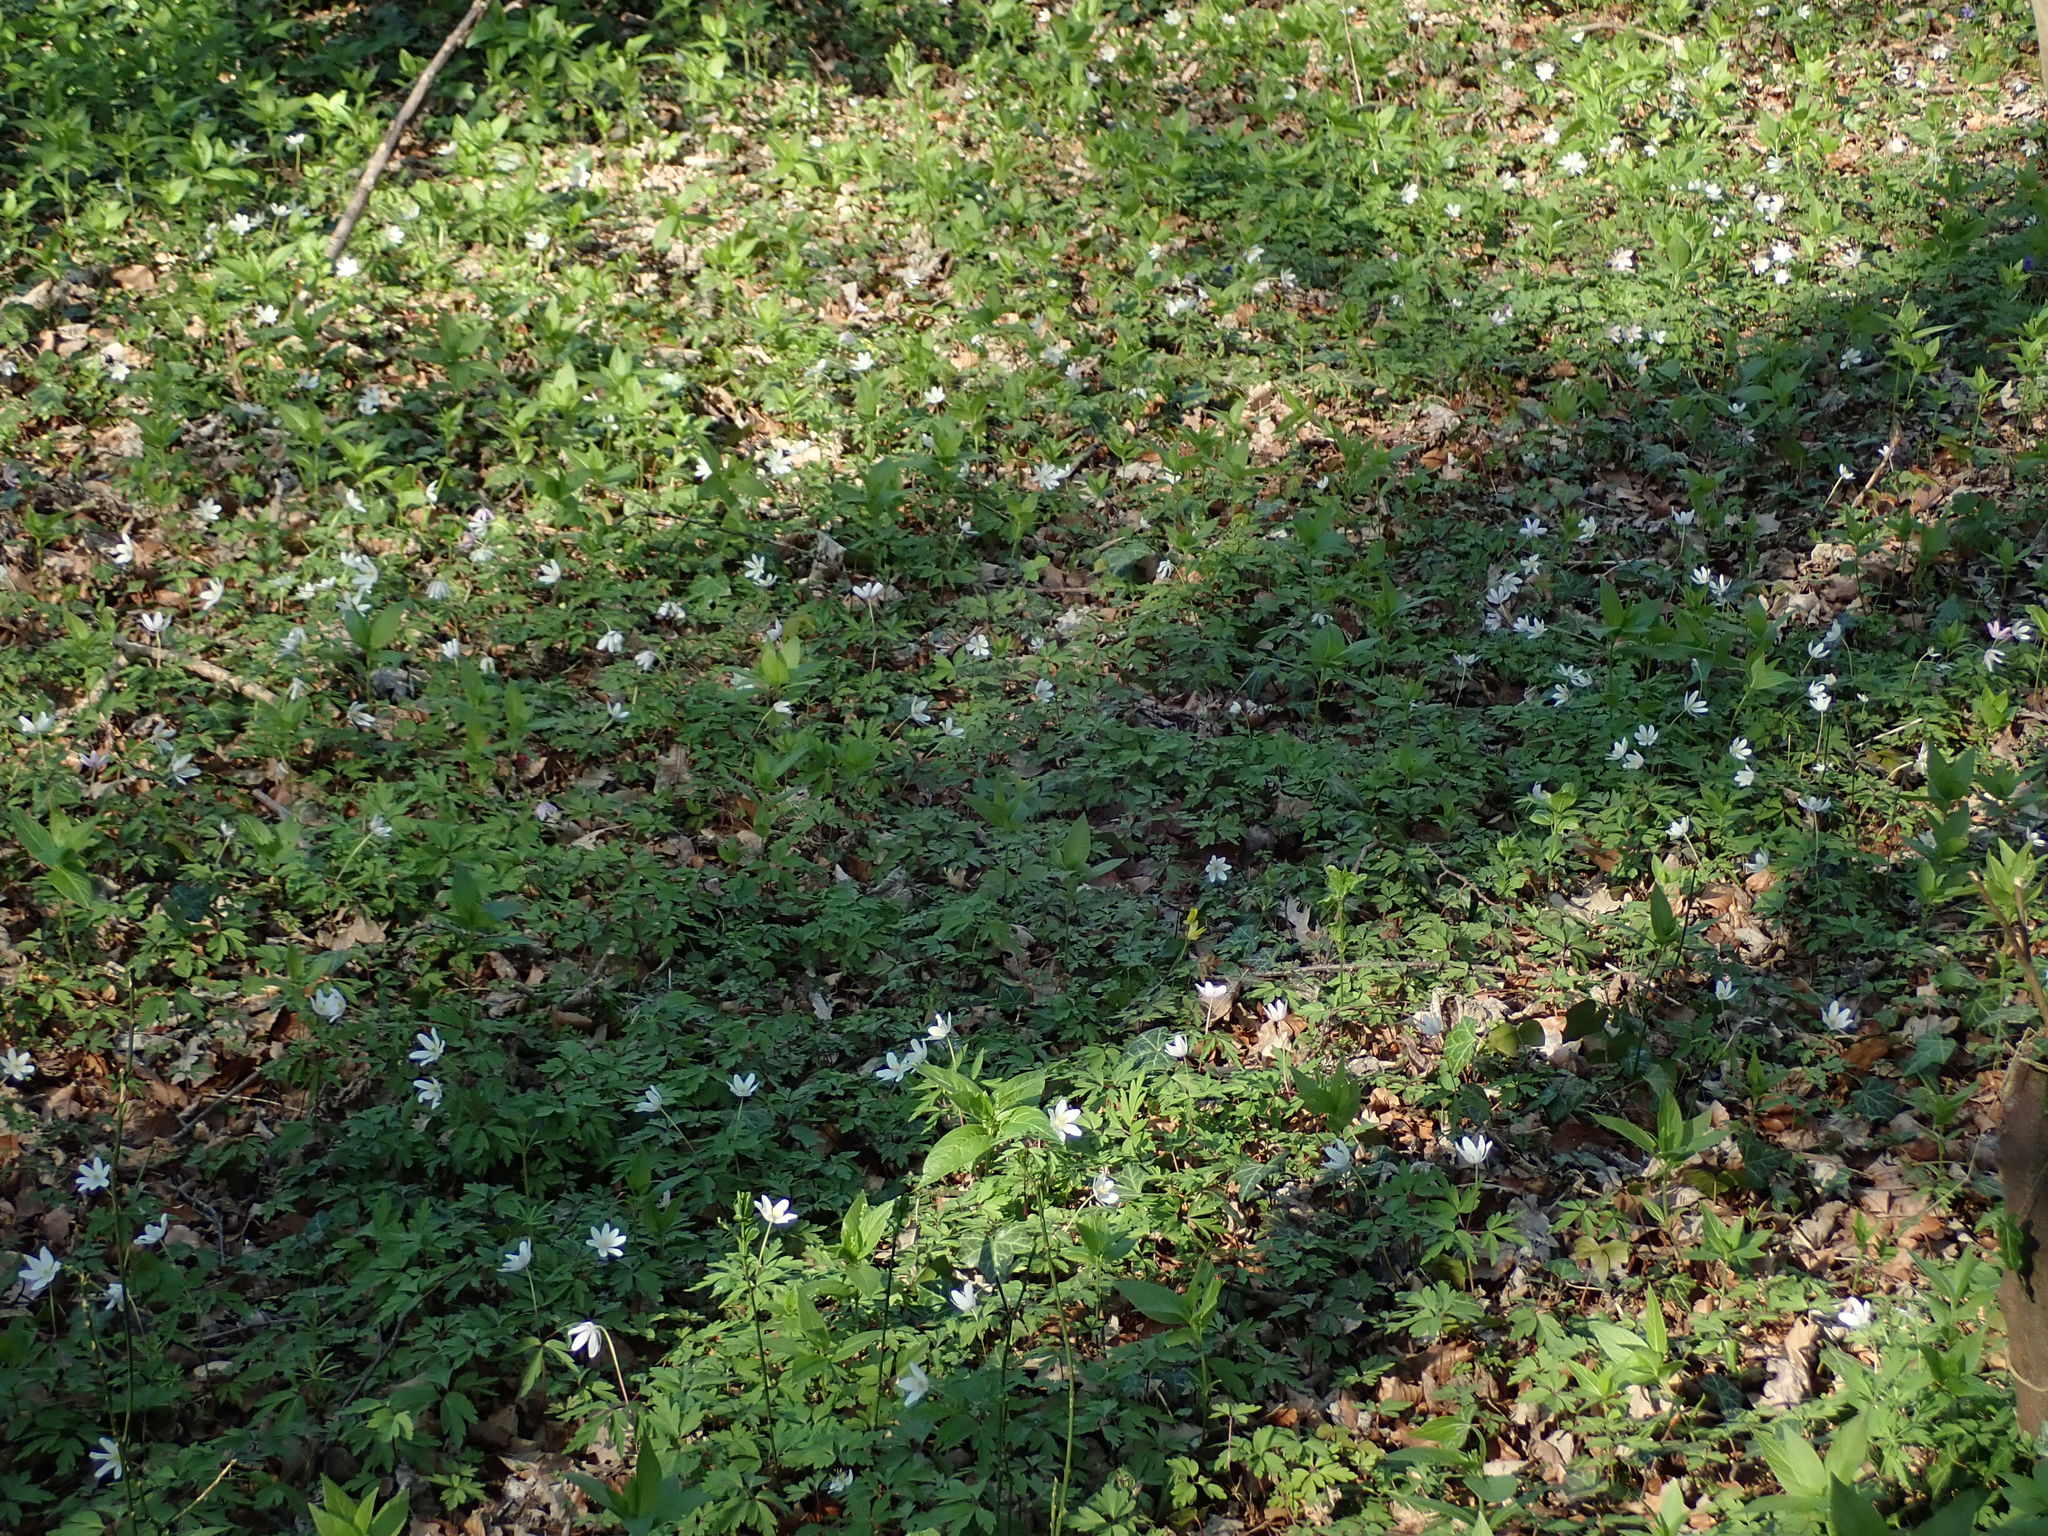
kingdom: Plantae
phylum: Tracheophyta
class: Magnoliopsida
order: Ranunculales
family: Ranunculaceae
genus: Anemone
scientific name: Anemone nemorosa
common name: Wood anemone
